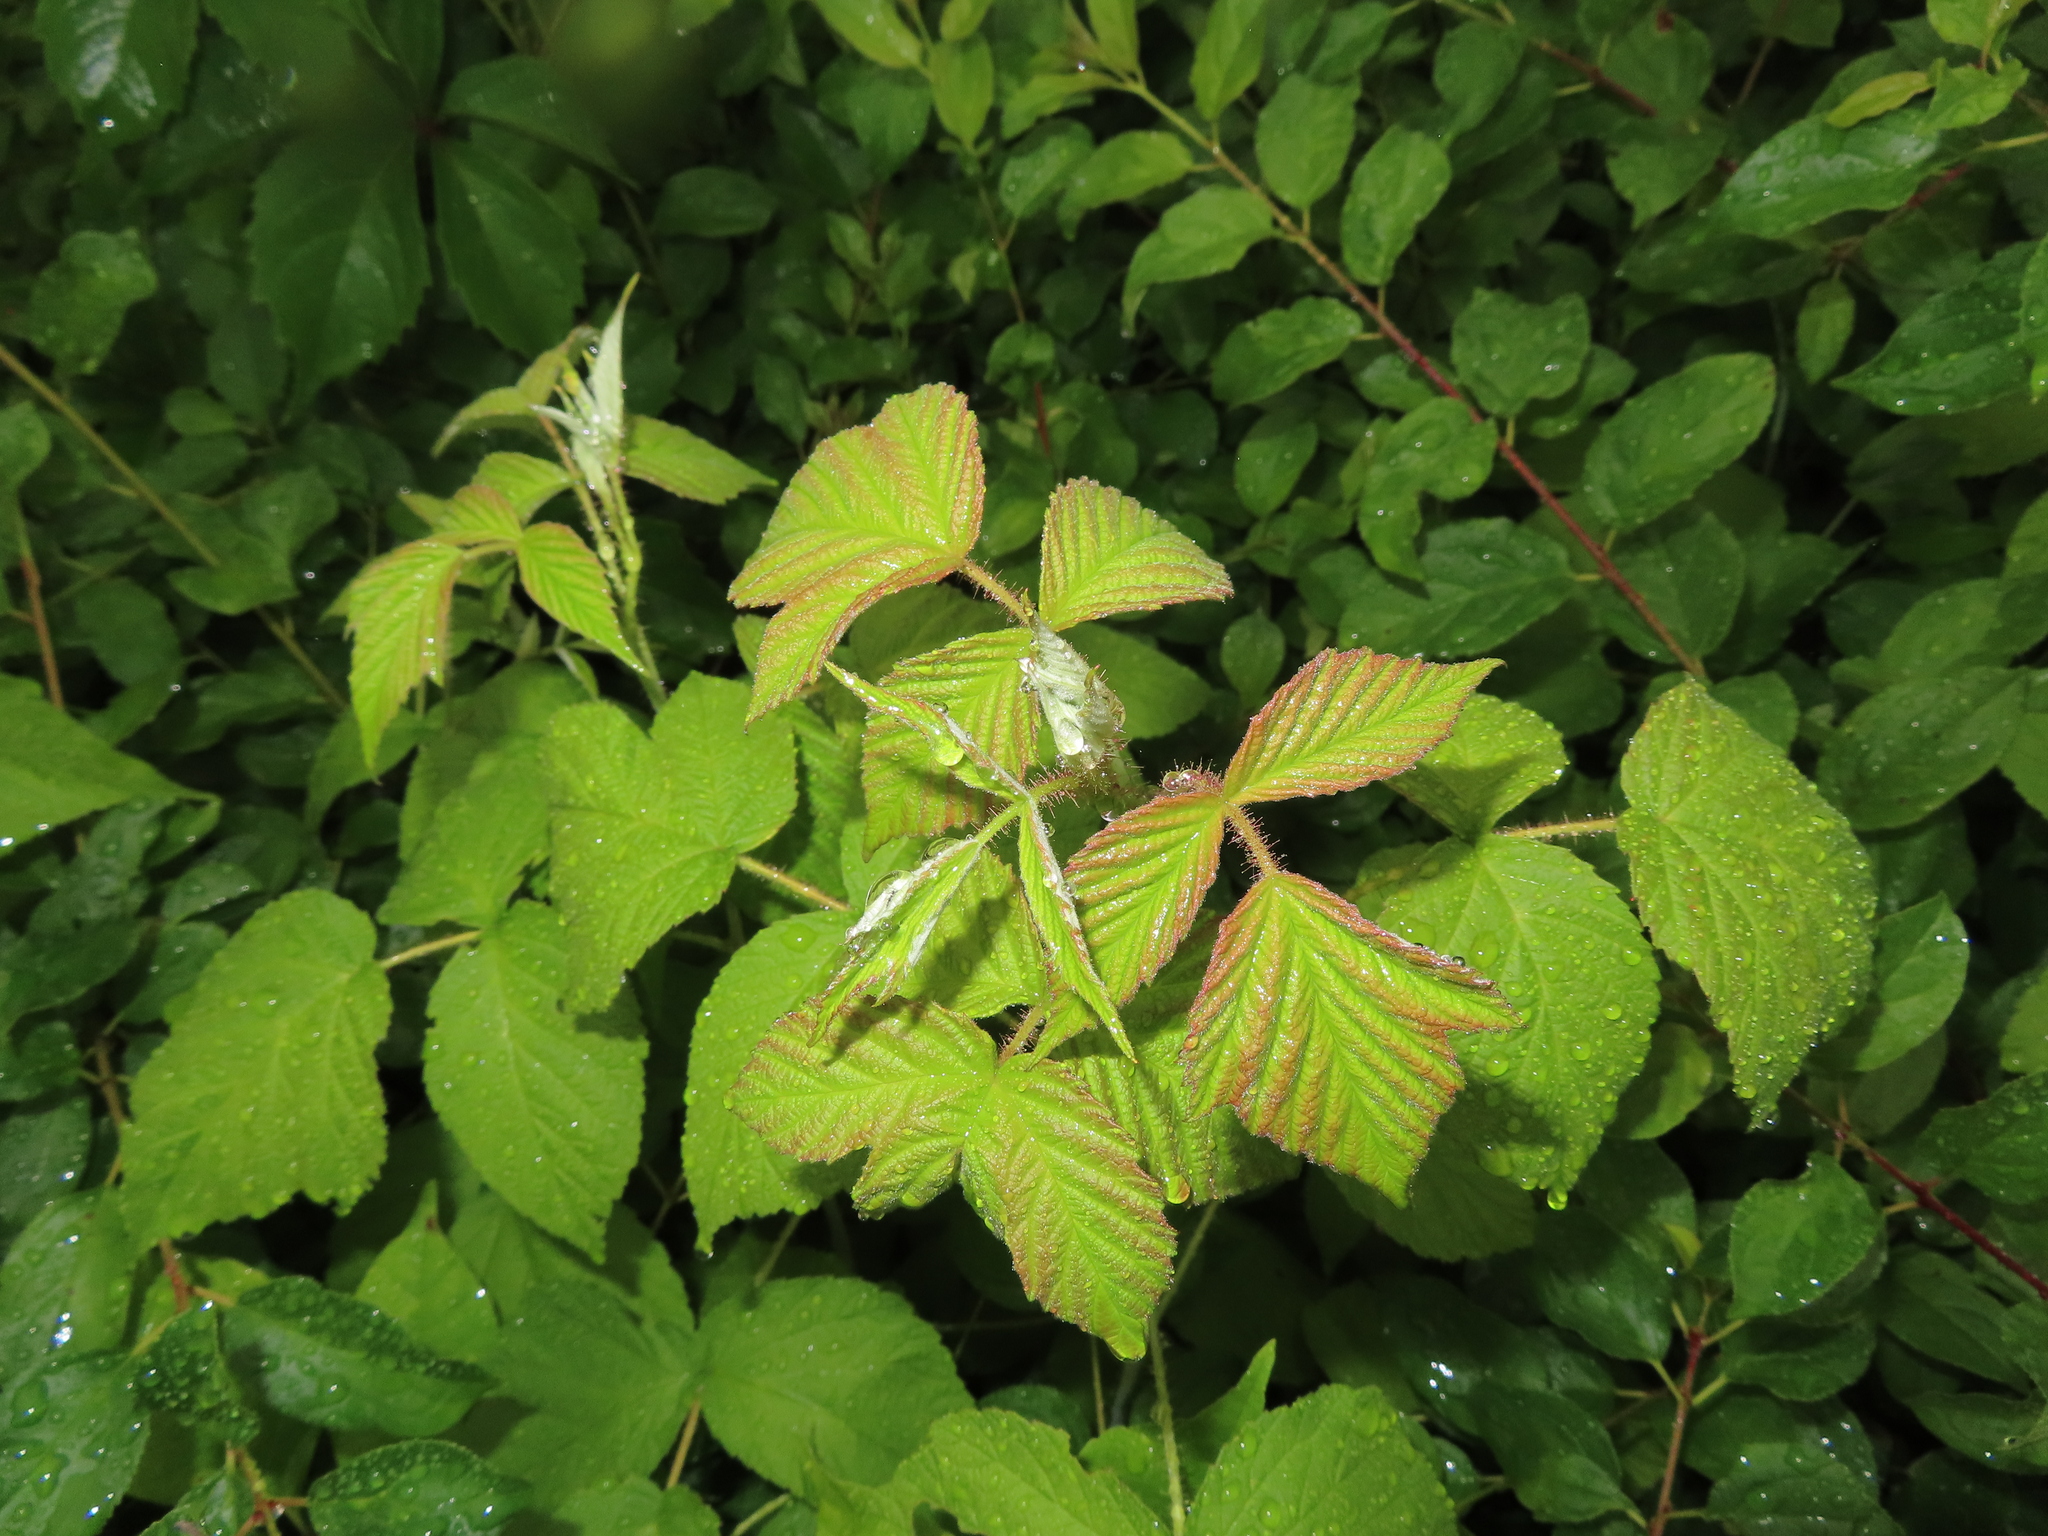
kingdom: Plantae
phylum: Tracheophyta
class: Magnoliopsida
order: Rosales
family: Rosaceae
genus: Rubus
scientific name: Rubus occidentalis
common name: Black raspberry
